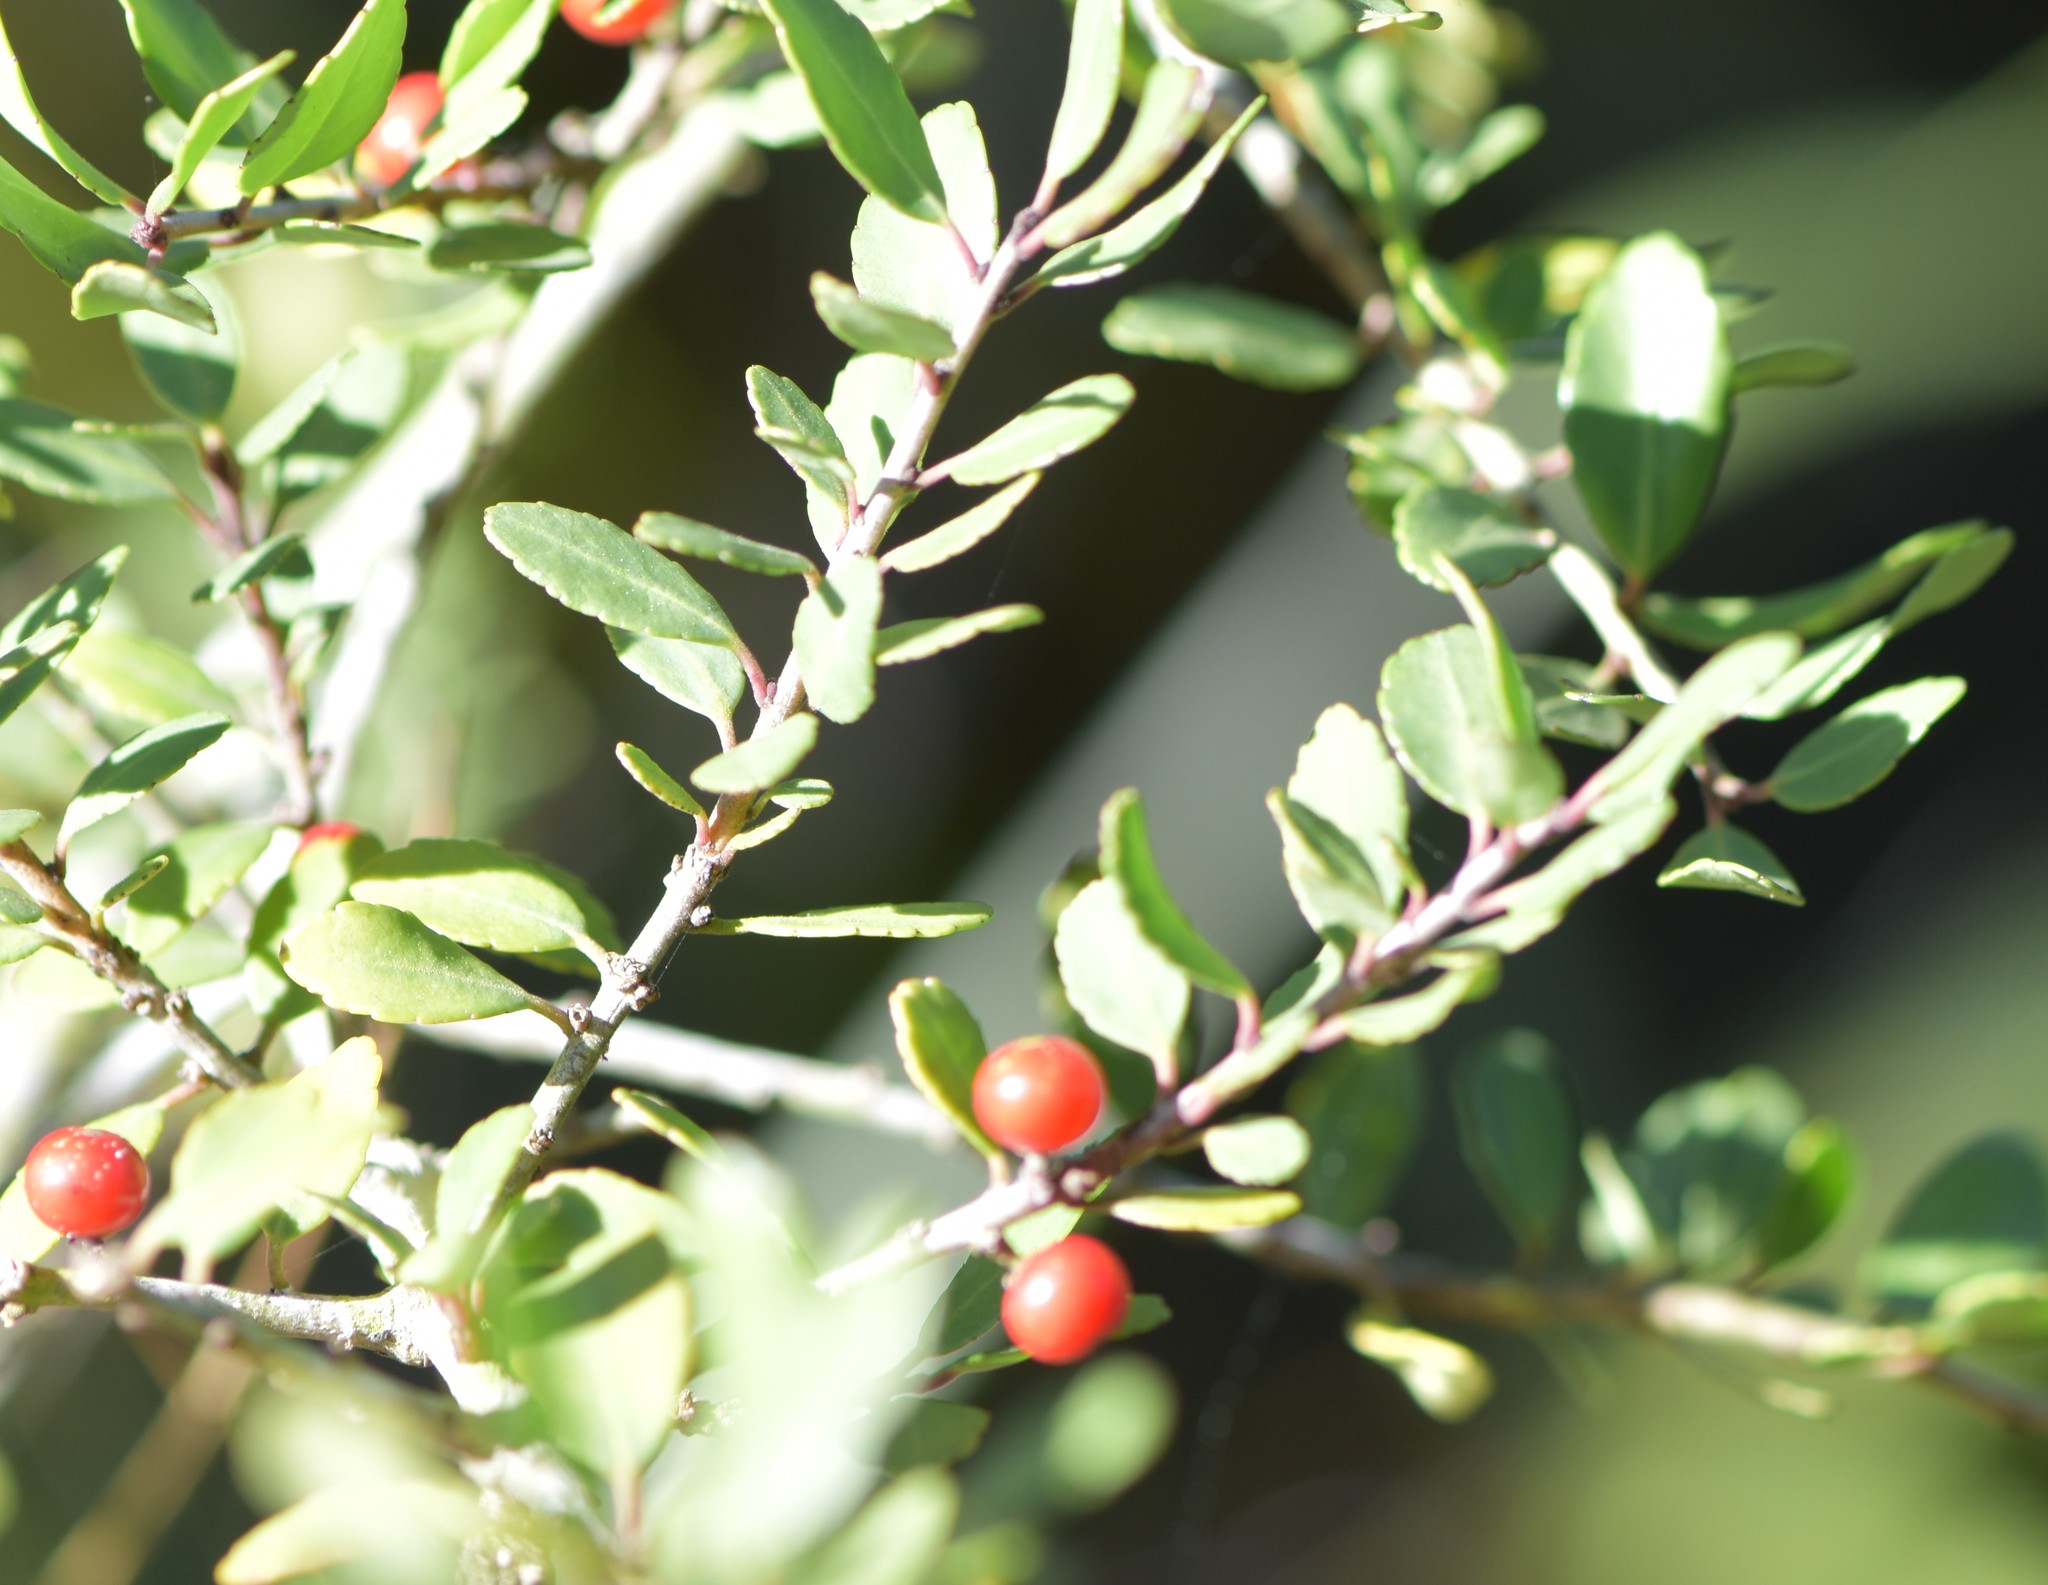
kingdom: Plantae
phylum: Tracheophyta
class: Magnoliopsida
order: Aquifoliales
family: Aquifoliaceae
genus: Ilex
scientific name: Ilex vomitoria
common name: Yaupon holly
